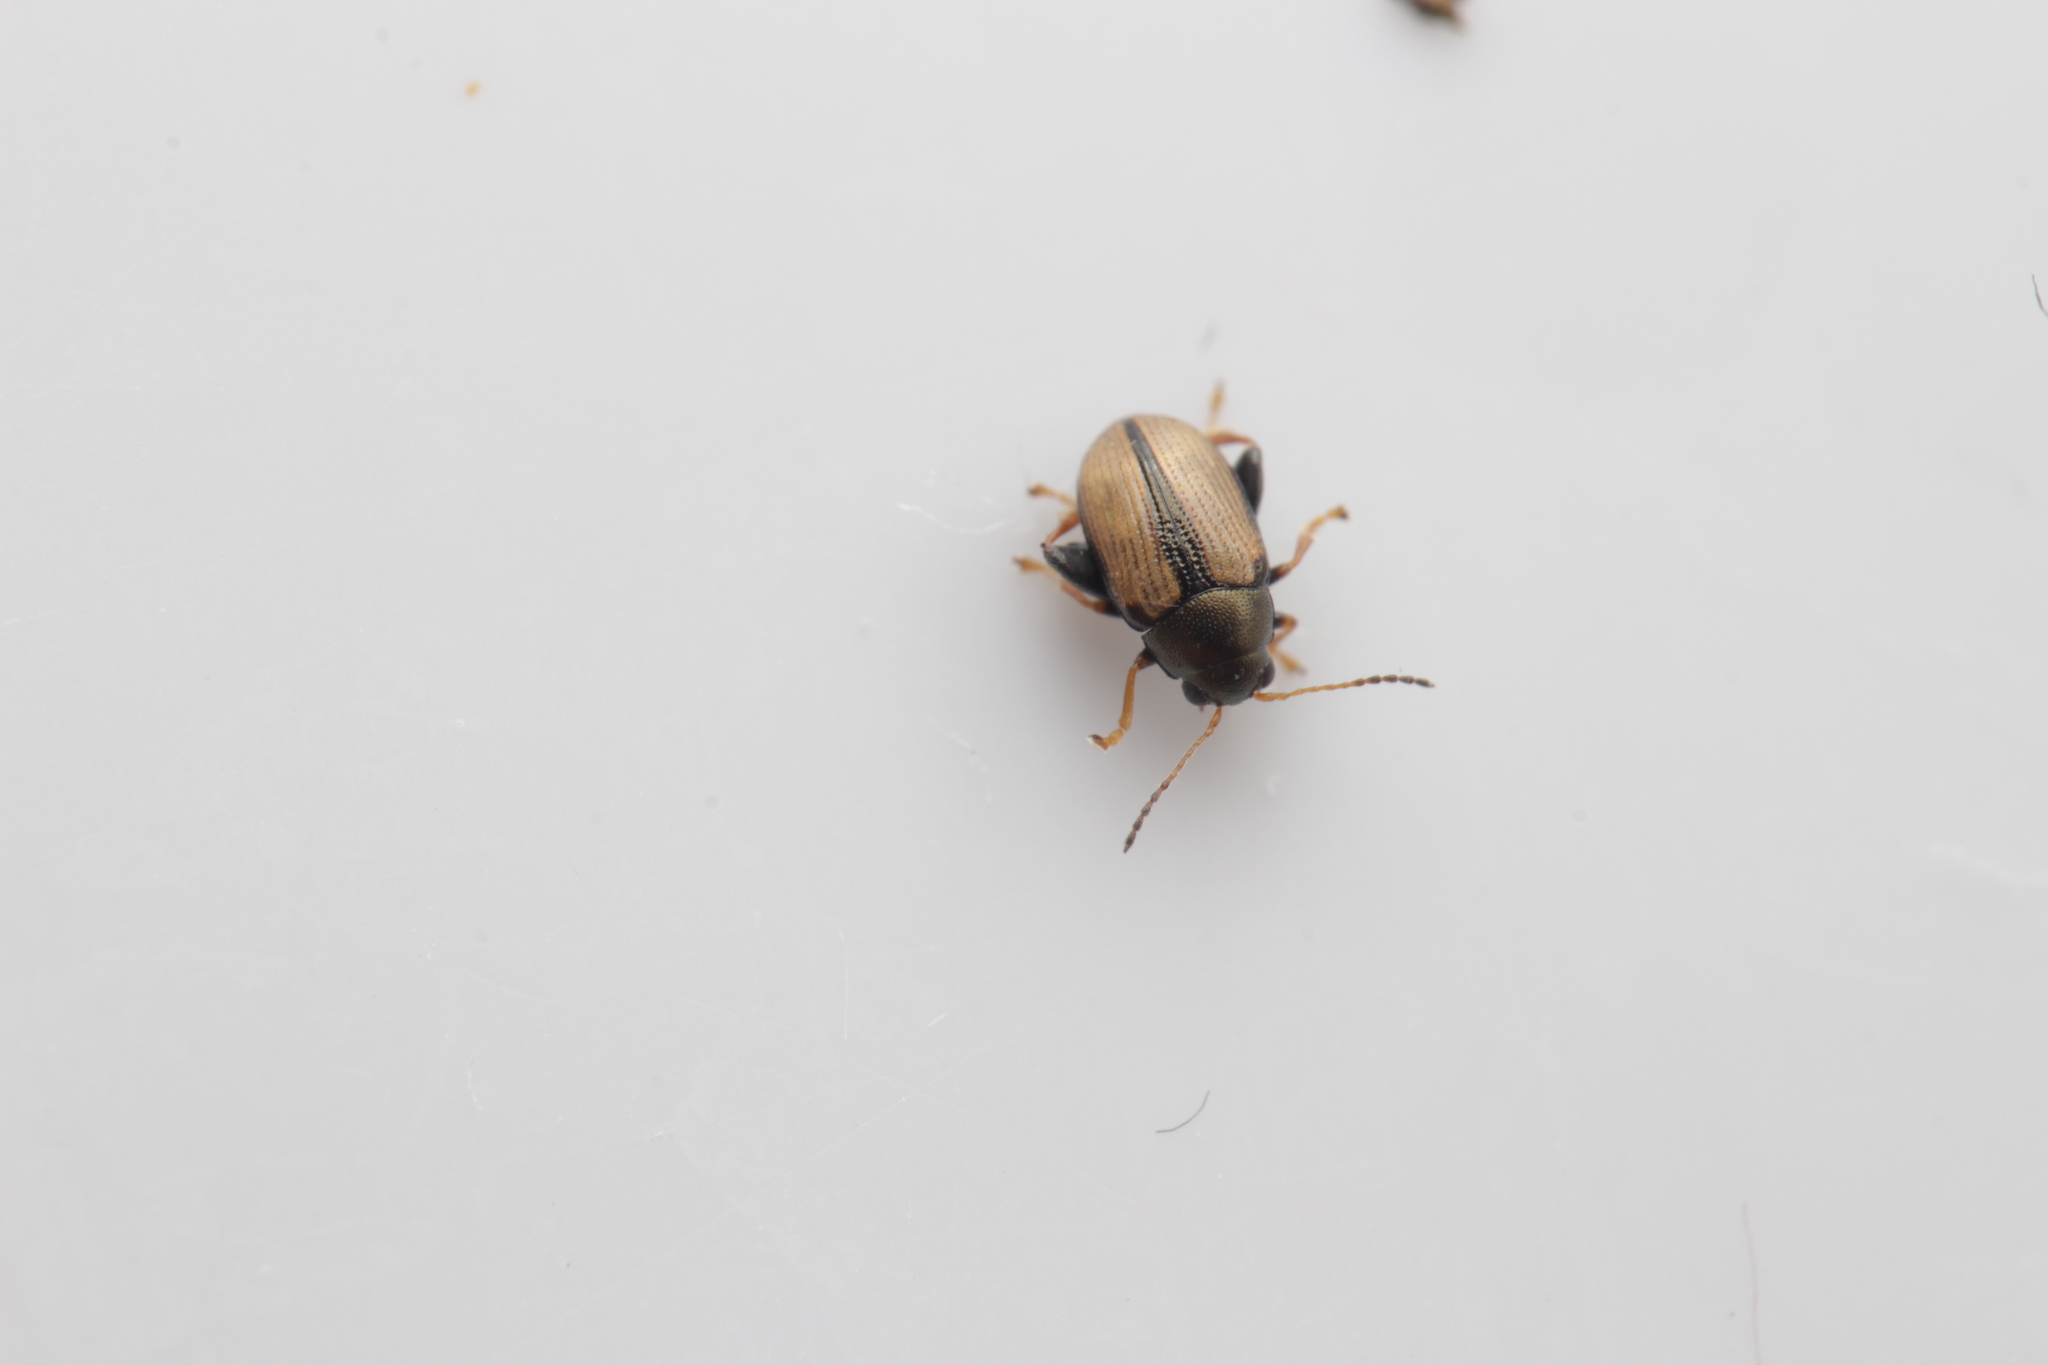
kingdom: Animalia
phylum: Arthropoda
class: Insecta
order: Coleoptera
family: Chrysomelidae
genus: Chaetocnema
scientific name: Chaetocnema conducta
